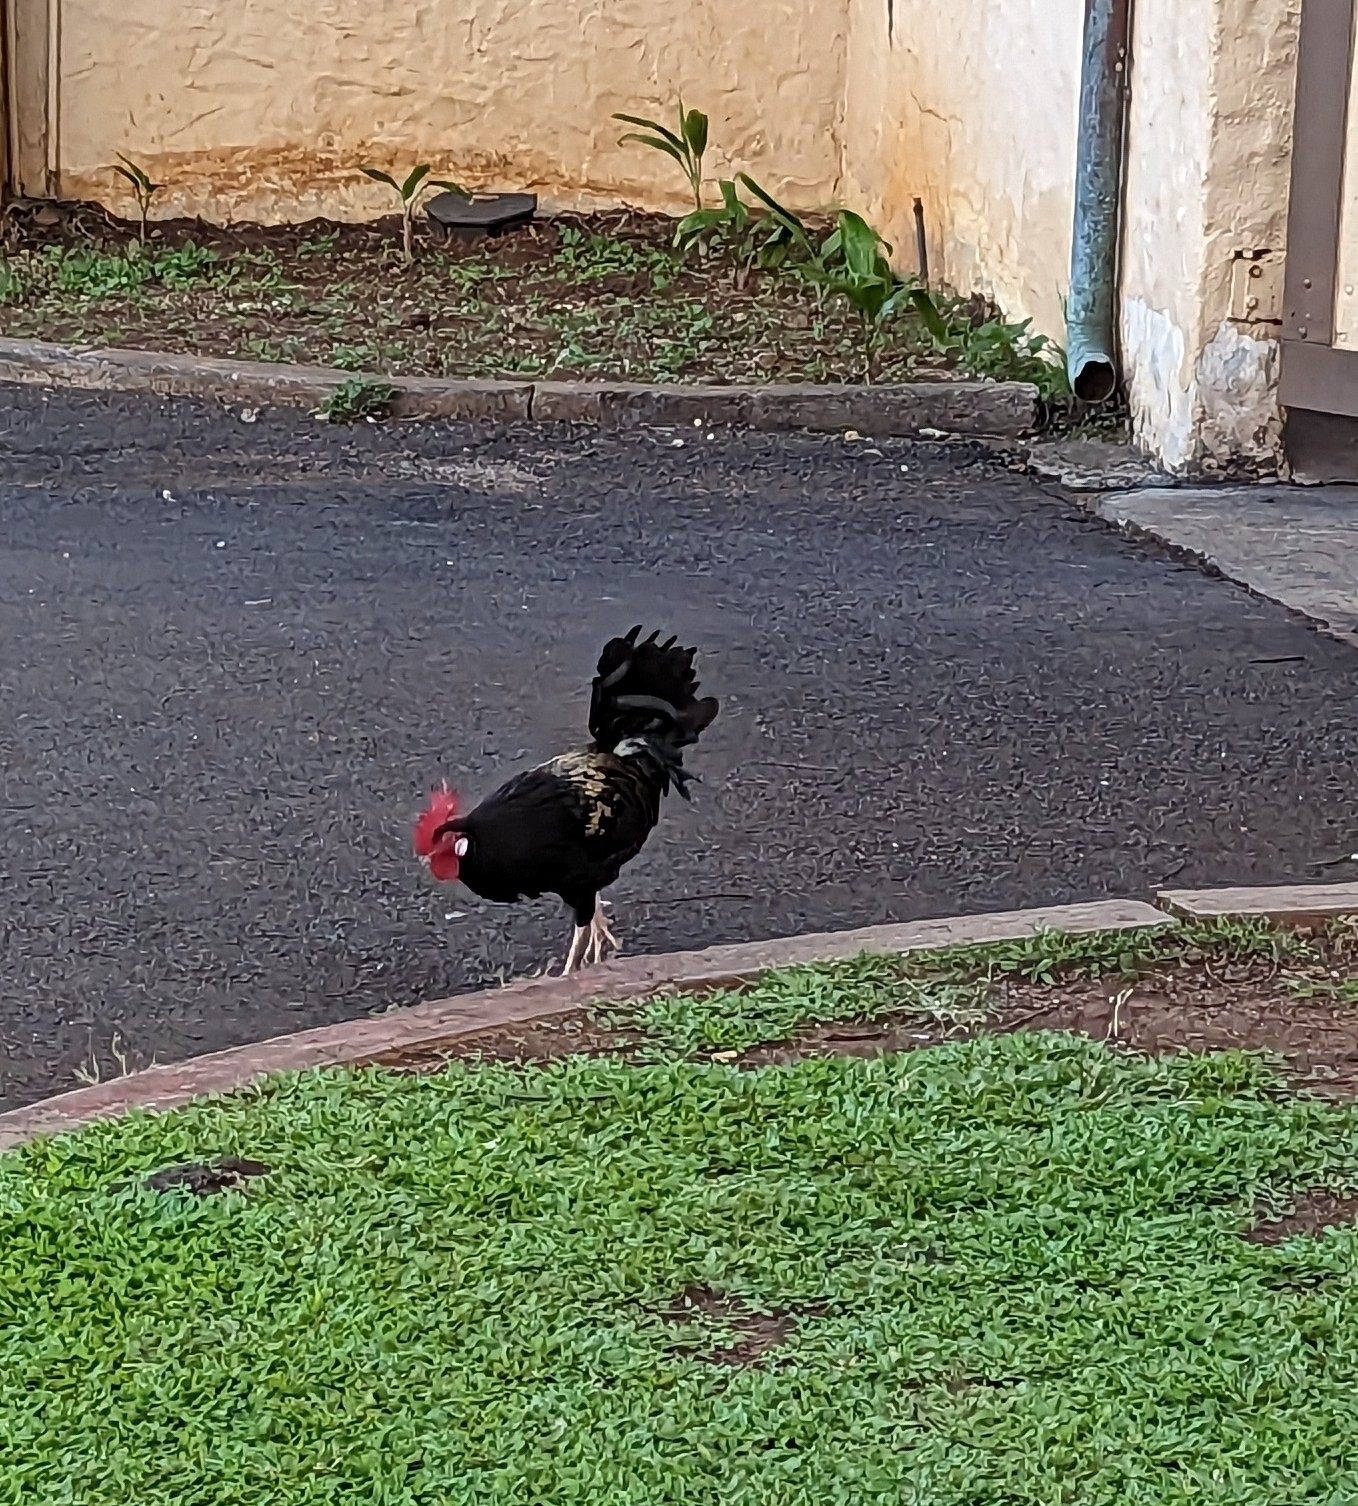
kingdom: Animalia
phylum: Chordata
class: Aves
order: Galliformes
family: Phasianidae
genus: Gallus
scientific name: Gallus gallus
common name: Red junglefowl
